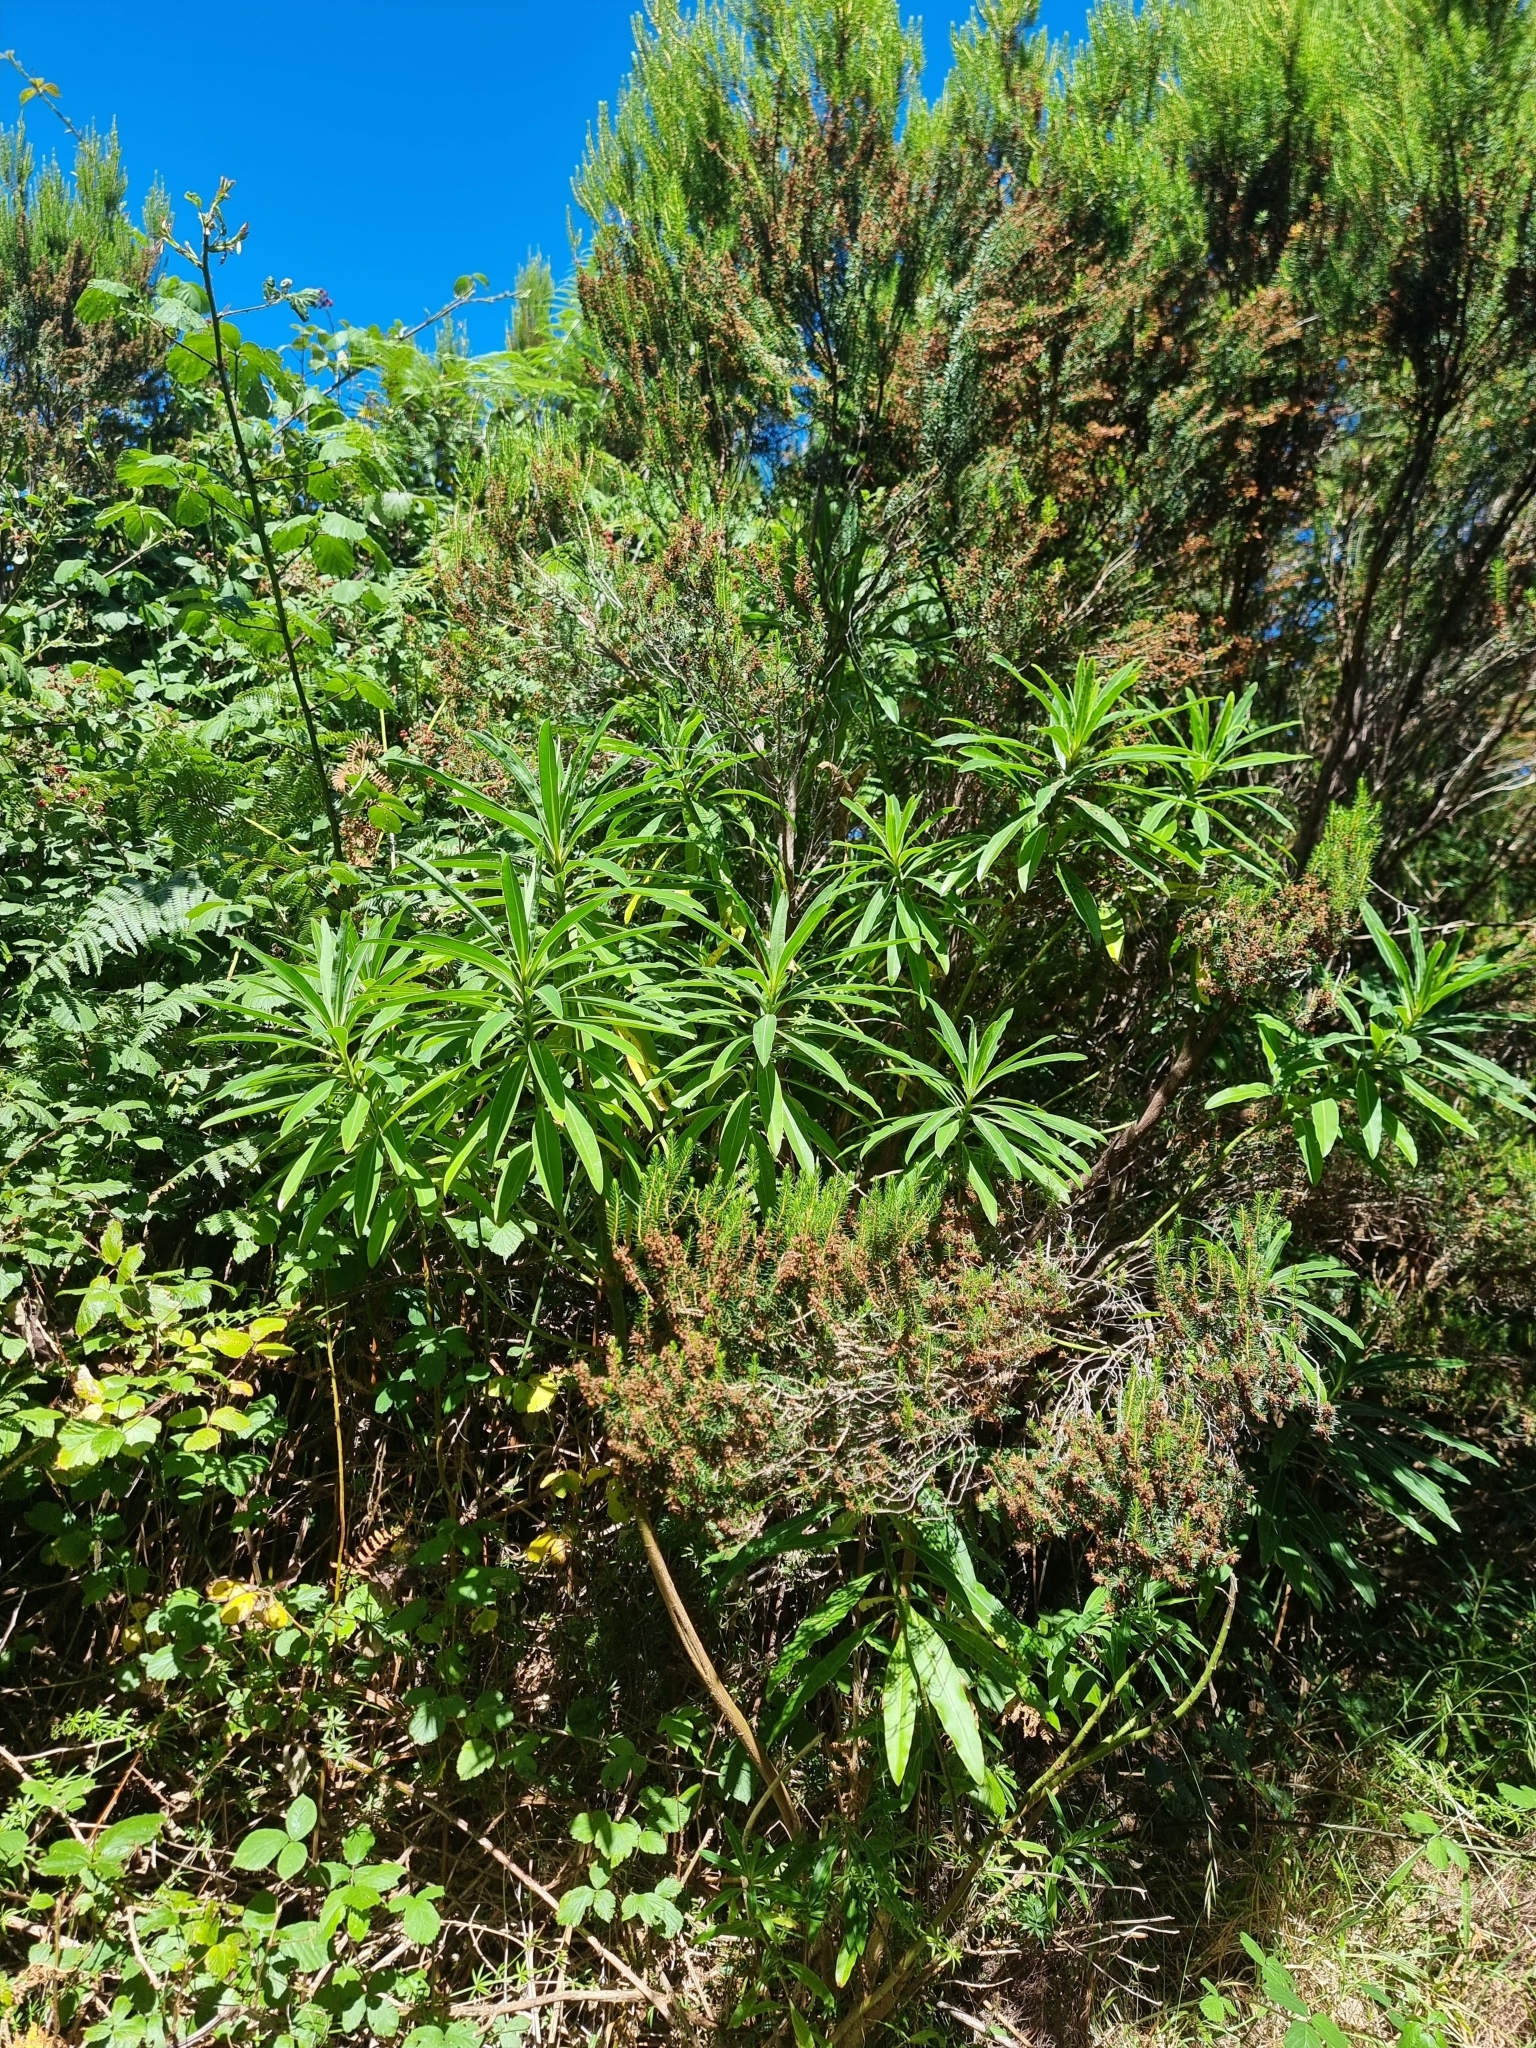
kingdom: Plantae
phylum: Tracheophyta
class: Magnoliopsida
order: Malpighiales
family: Euphorbiaceae
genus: Euphorbia
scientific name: Euphorbia mellifera
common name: Canary spurge
